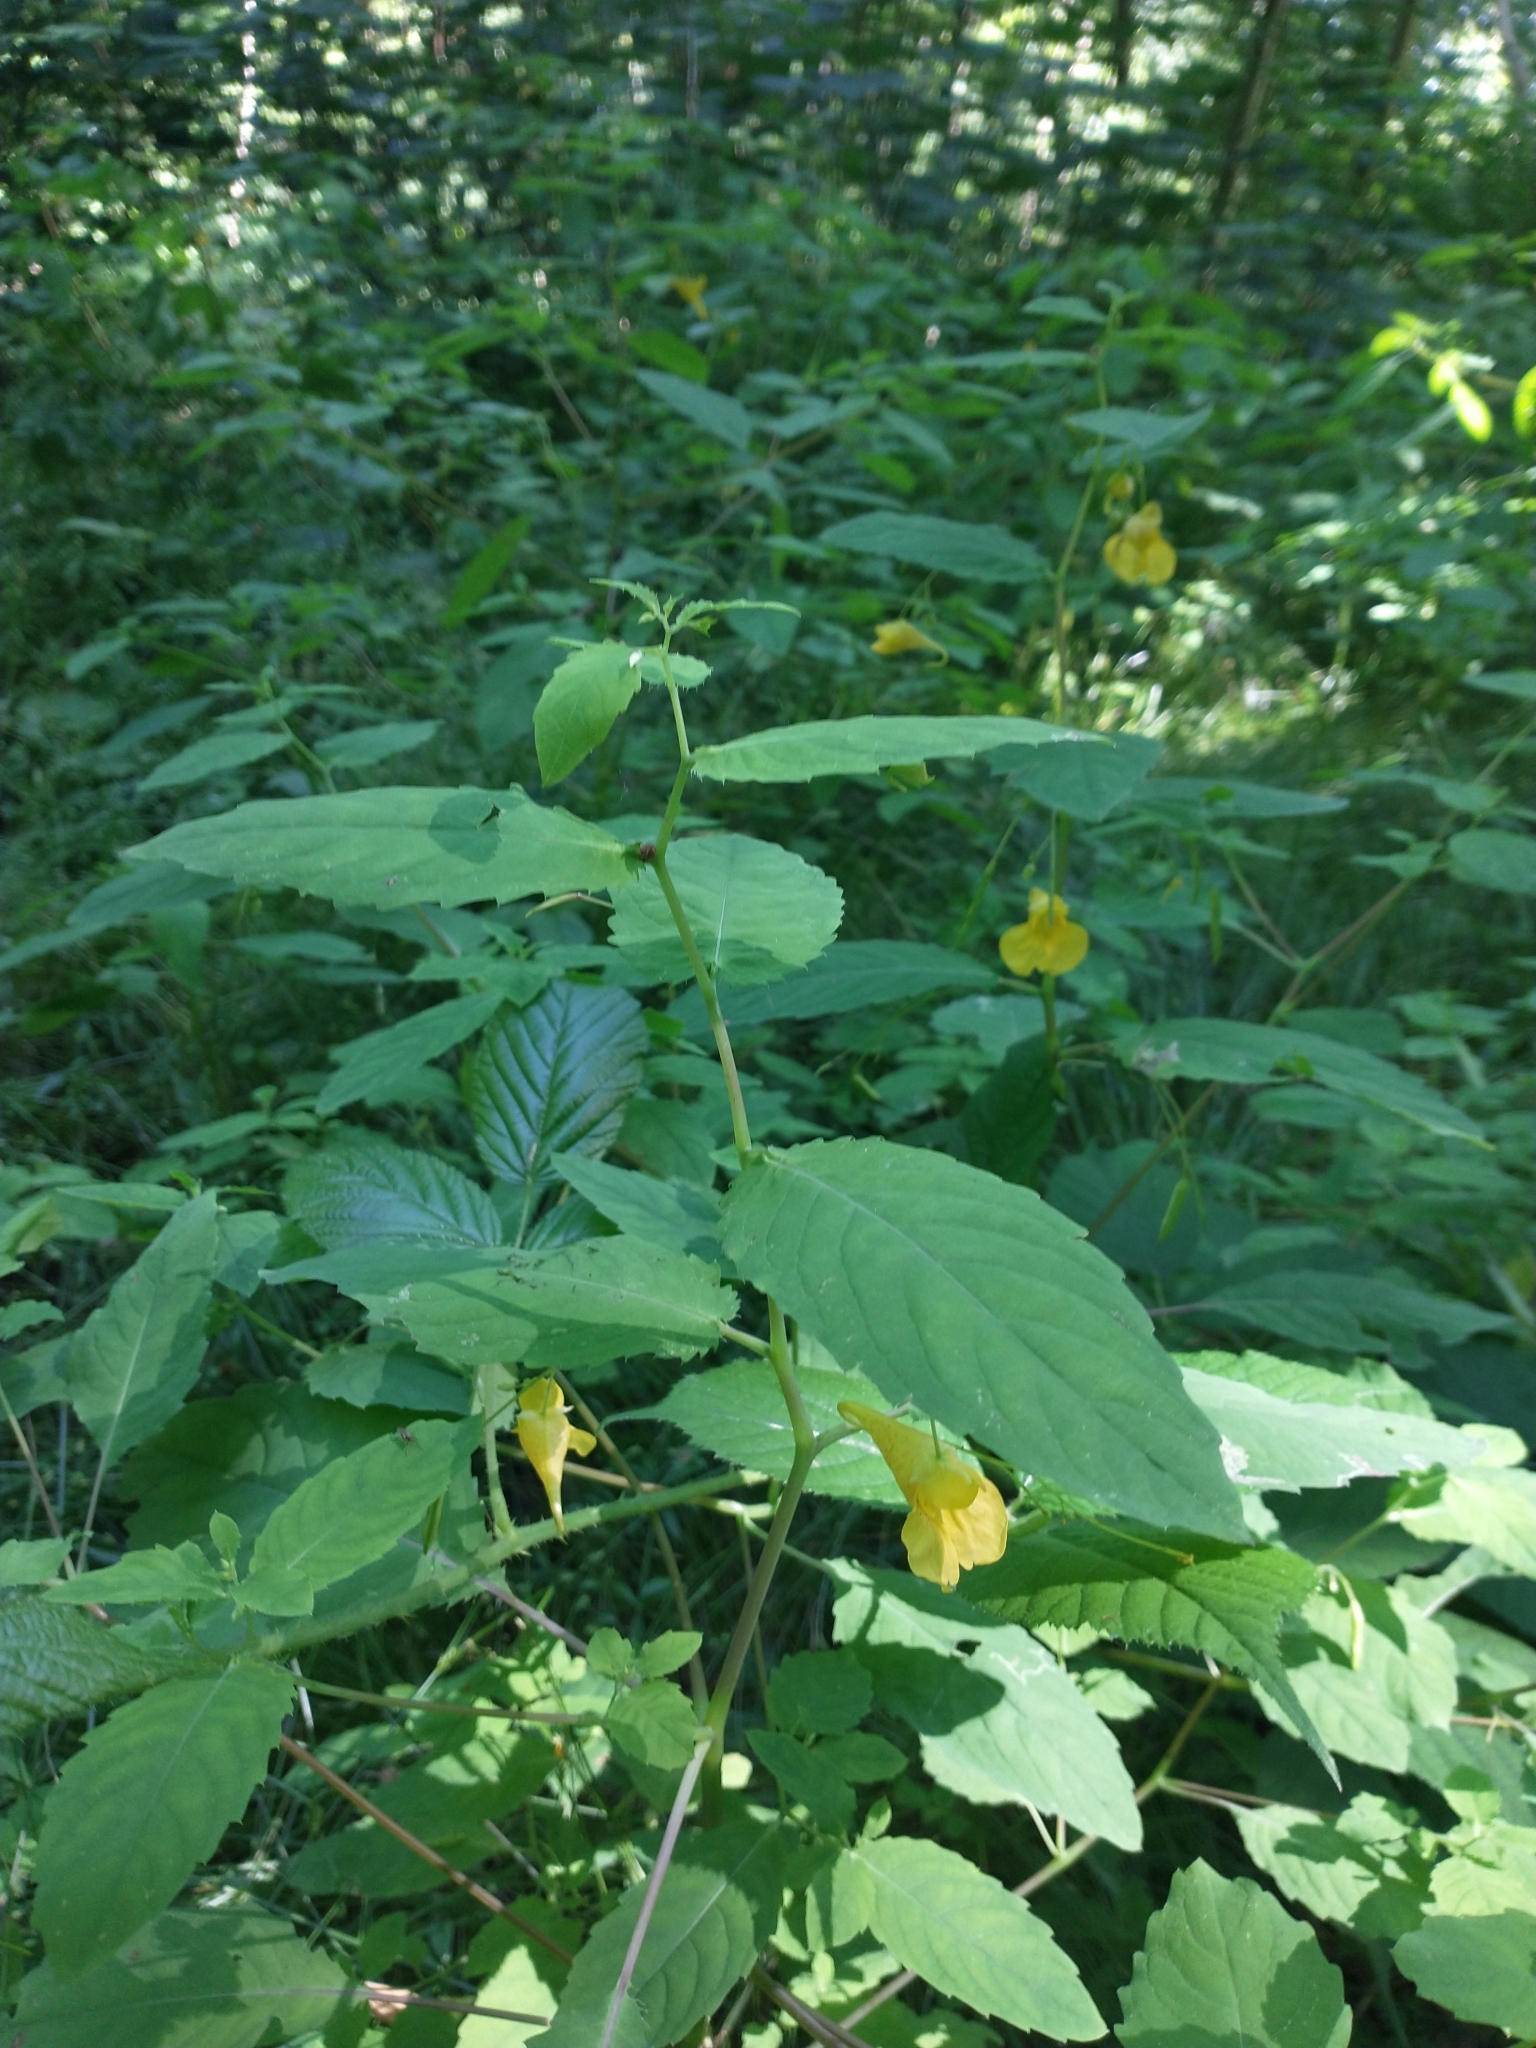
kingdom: Plantae
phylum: Tracheophyta
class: Magnoliopsida
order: Ericales
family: Balsaminaceae
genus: Impatiens
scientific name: Impatiens noli-tangere
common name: Touch-me-not balsam
